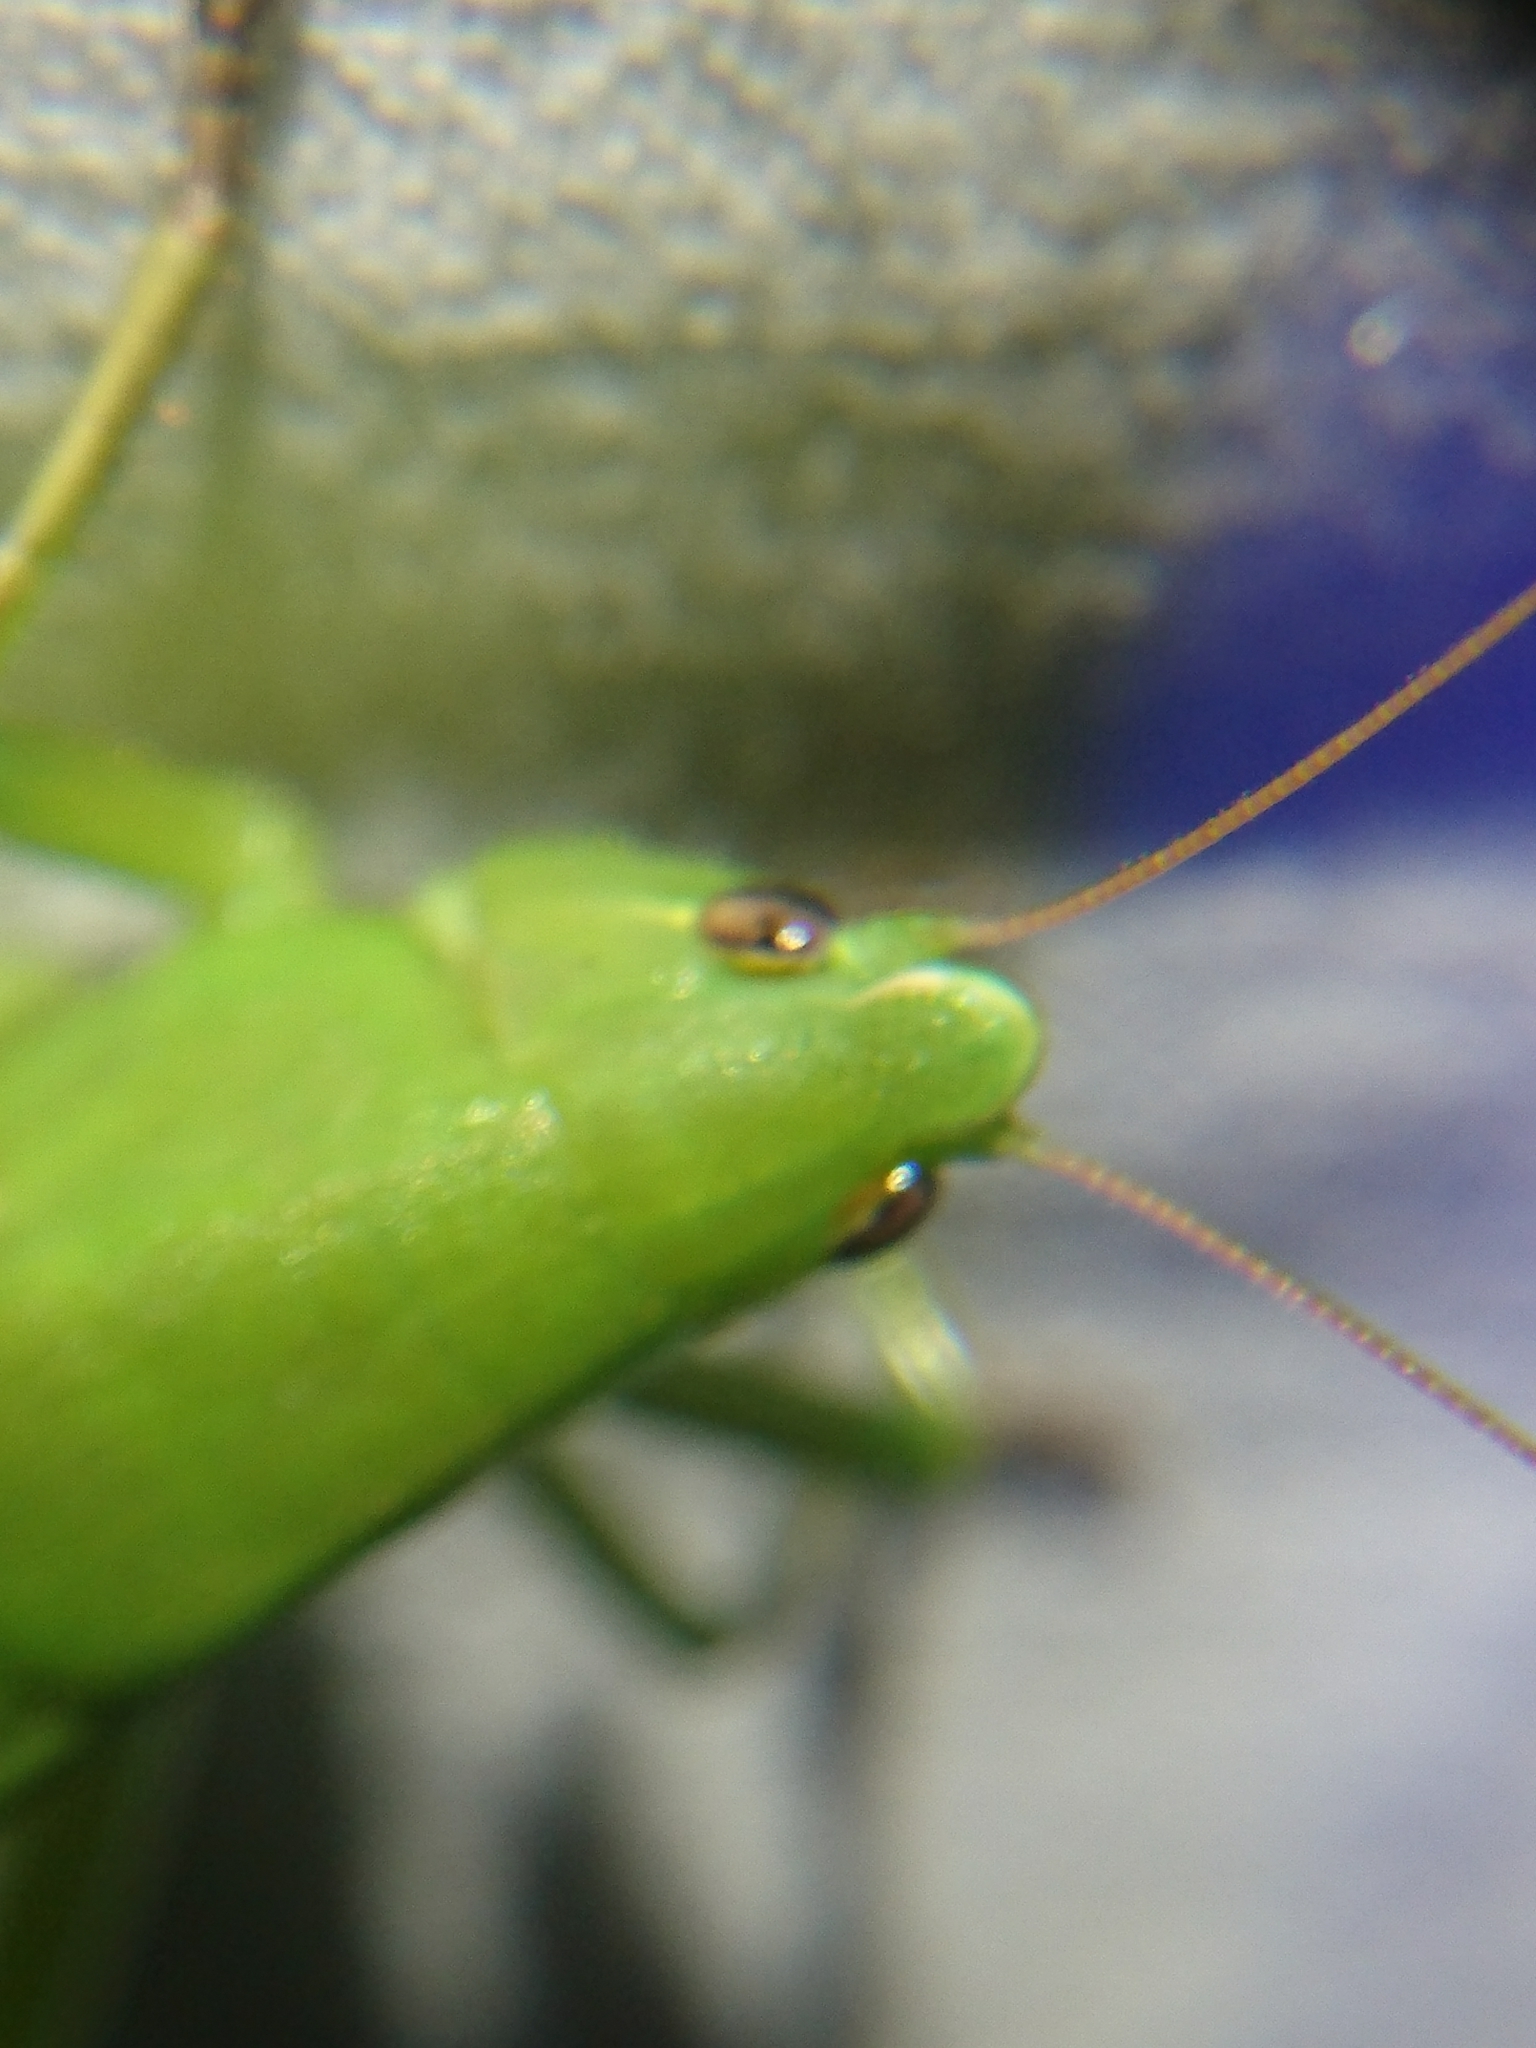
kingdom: Animalia
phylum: Arthropoda
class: Insecta
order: Orthoptera
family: Tettigoniidae
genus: Neoconocephalus
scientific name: Neoconocephalus triops
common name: Broad-tipped conehead
